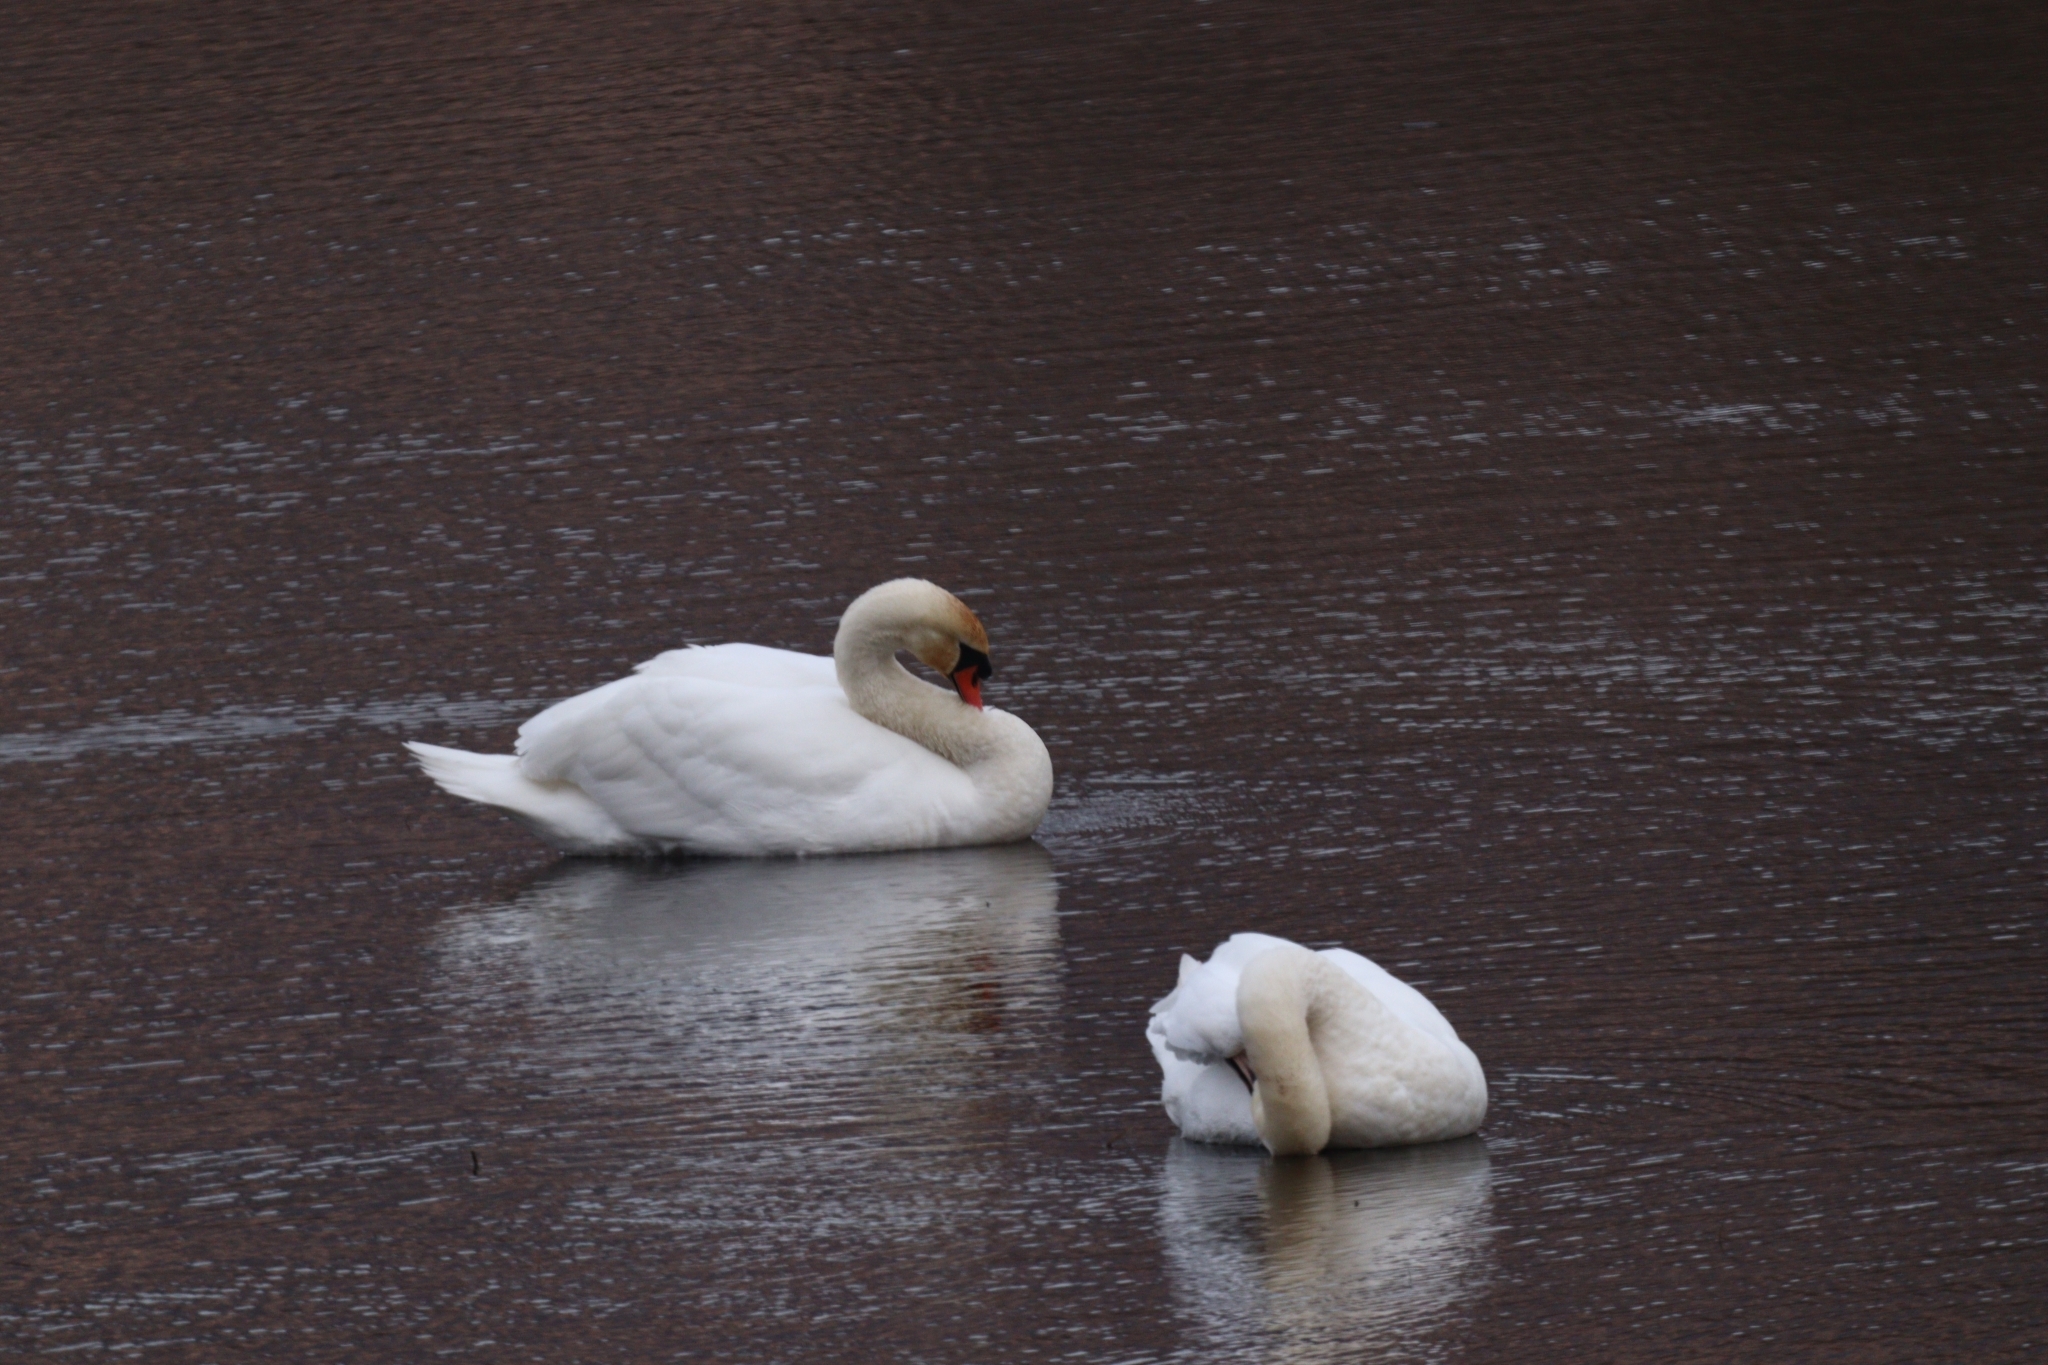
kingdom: Animalia
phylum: Chordata
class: Aves
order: Anseriformes
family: Anatidae
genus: Cygnus
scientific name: Cygnus olor
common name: Mute swan
